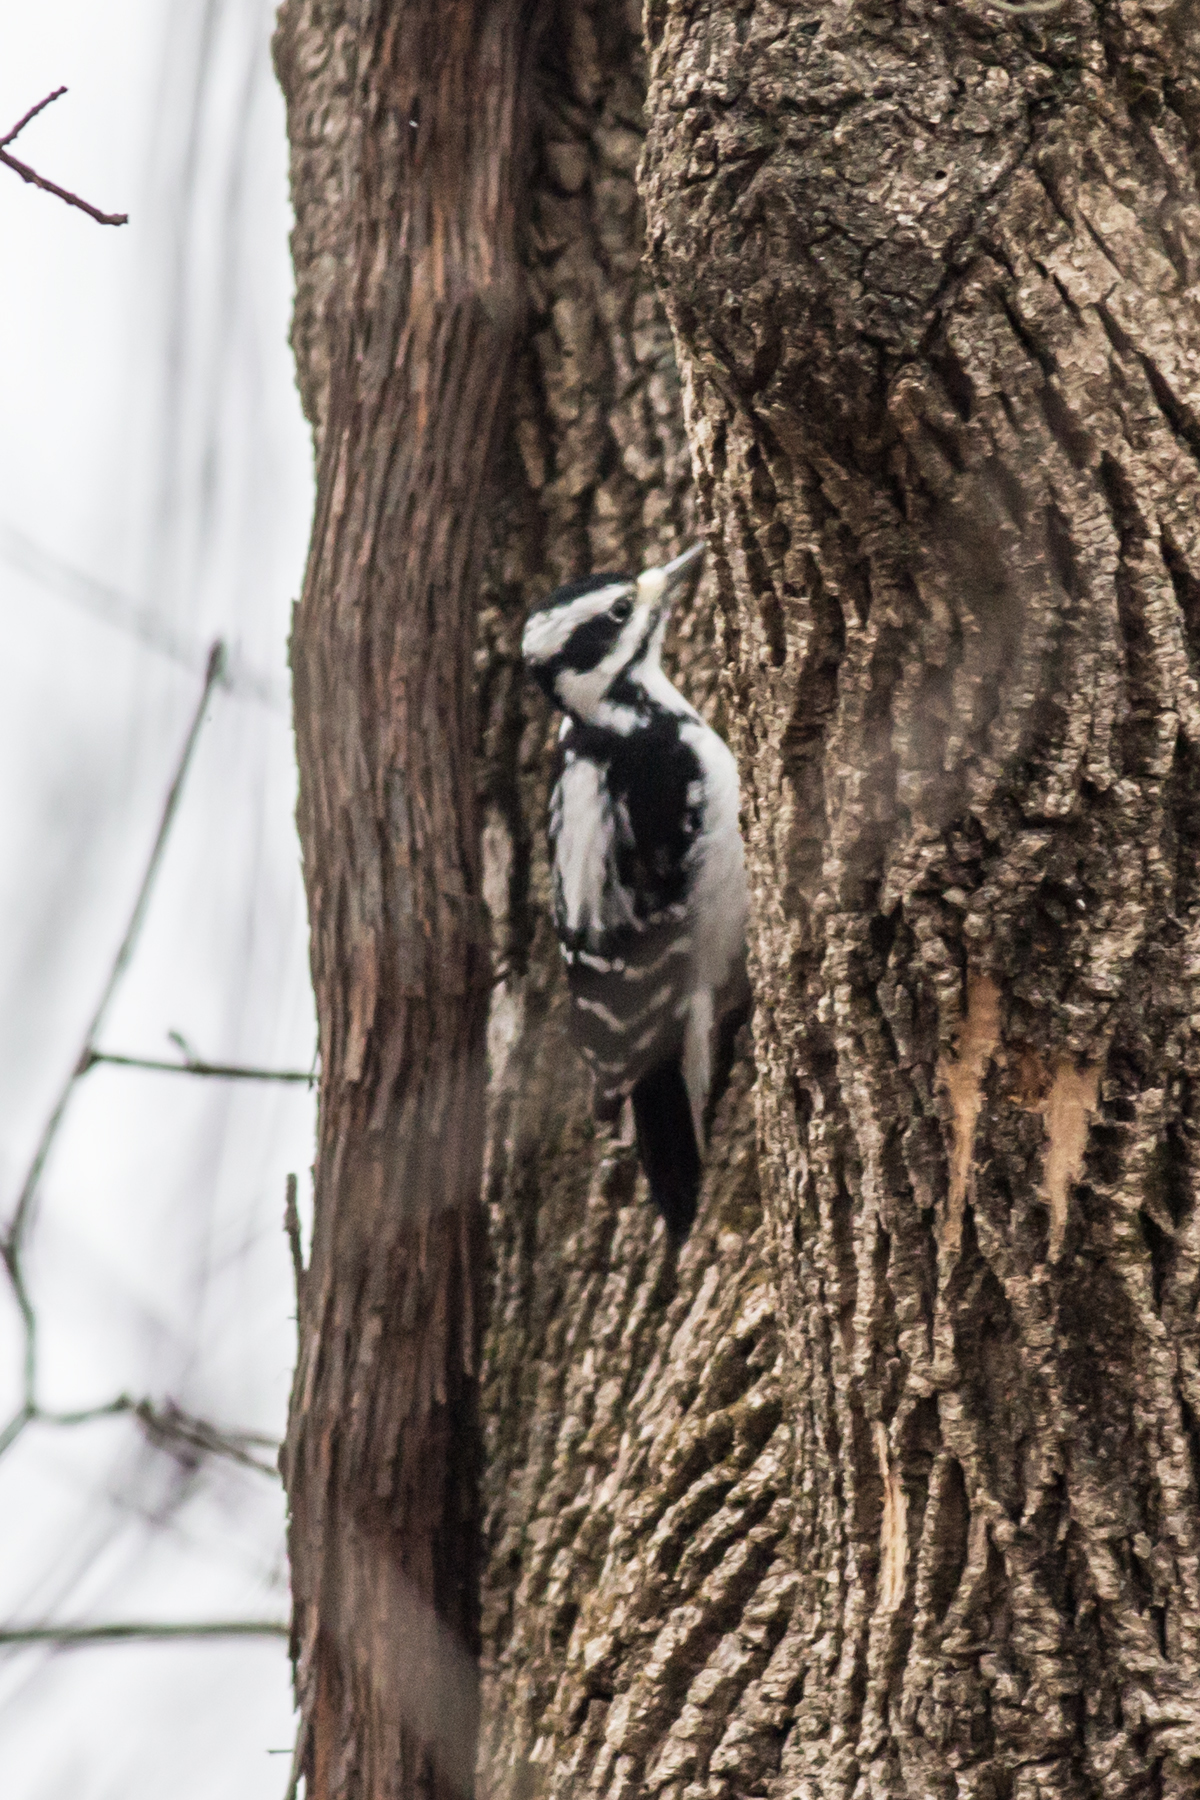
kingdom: Animalia
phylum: Chordata
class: Aves
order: Piciformes
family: Picidae
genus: Leuconotopicus
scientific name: Leuconotopicus villosus
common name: Hairy woodpecker
